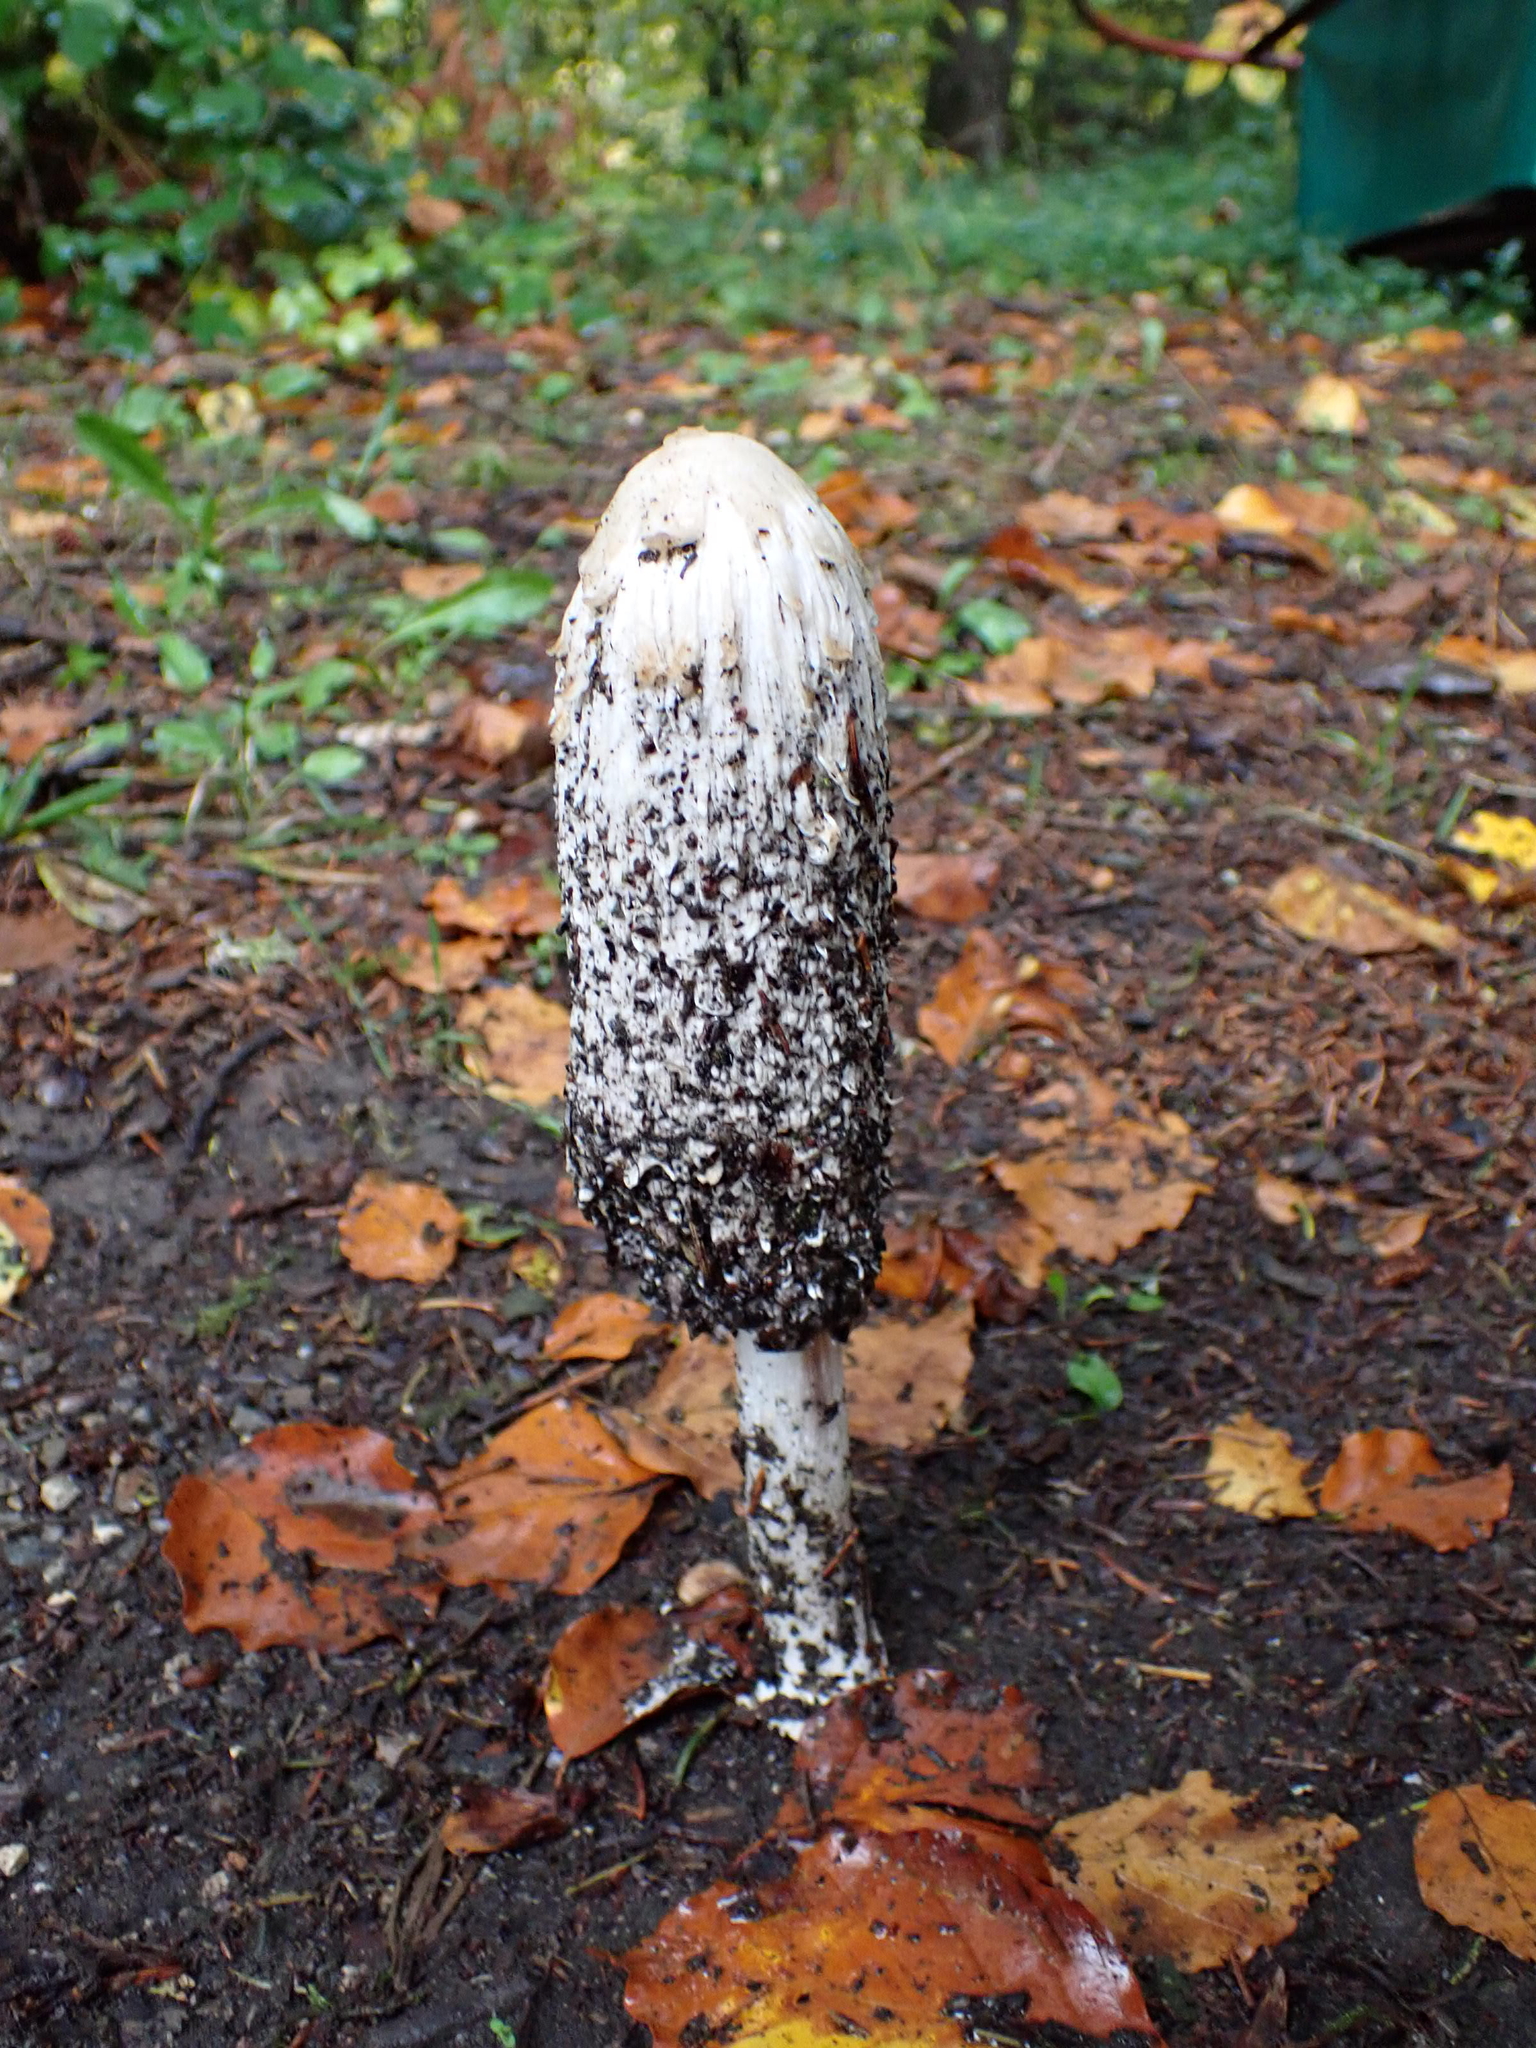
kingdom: Fungi
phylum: Basidiomycota
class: Agaricomycetes
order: Agaricales
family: Agaricaceae
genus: Coprinus
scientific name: Coprinus comatus
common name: Lawyer's wig
